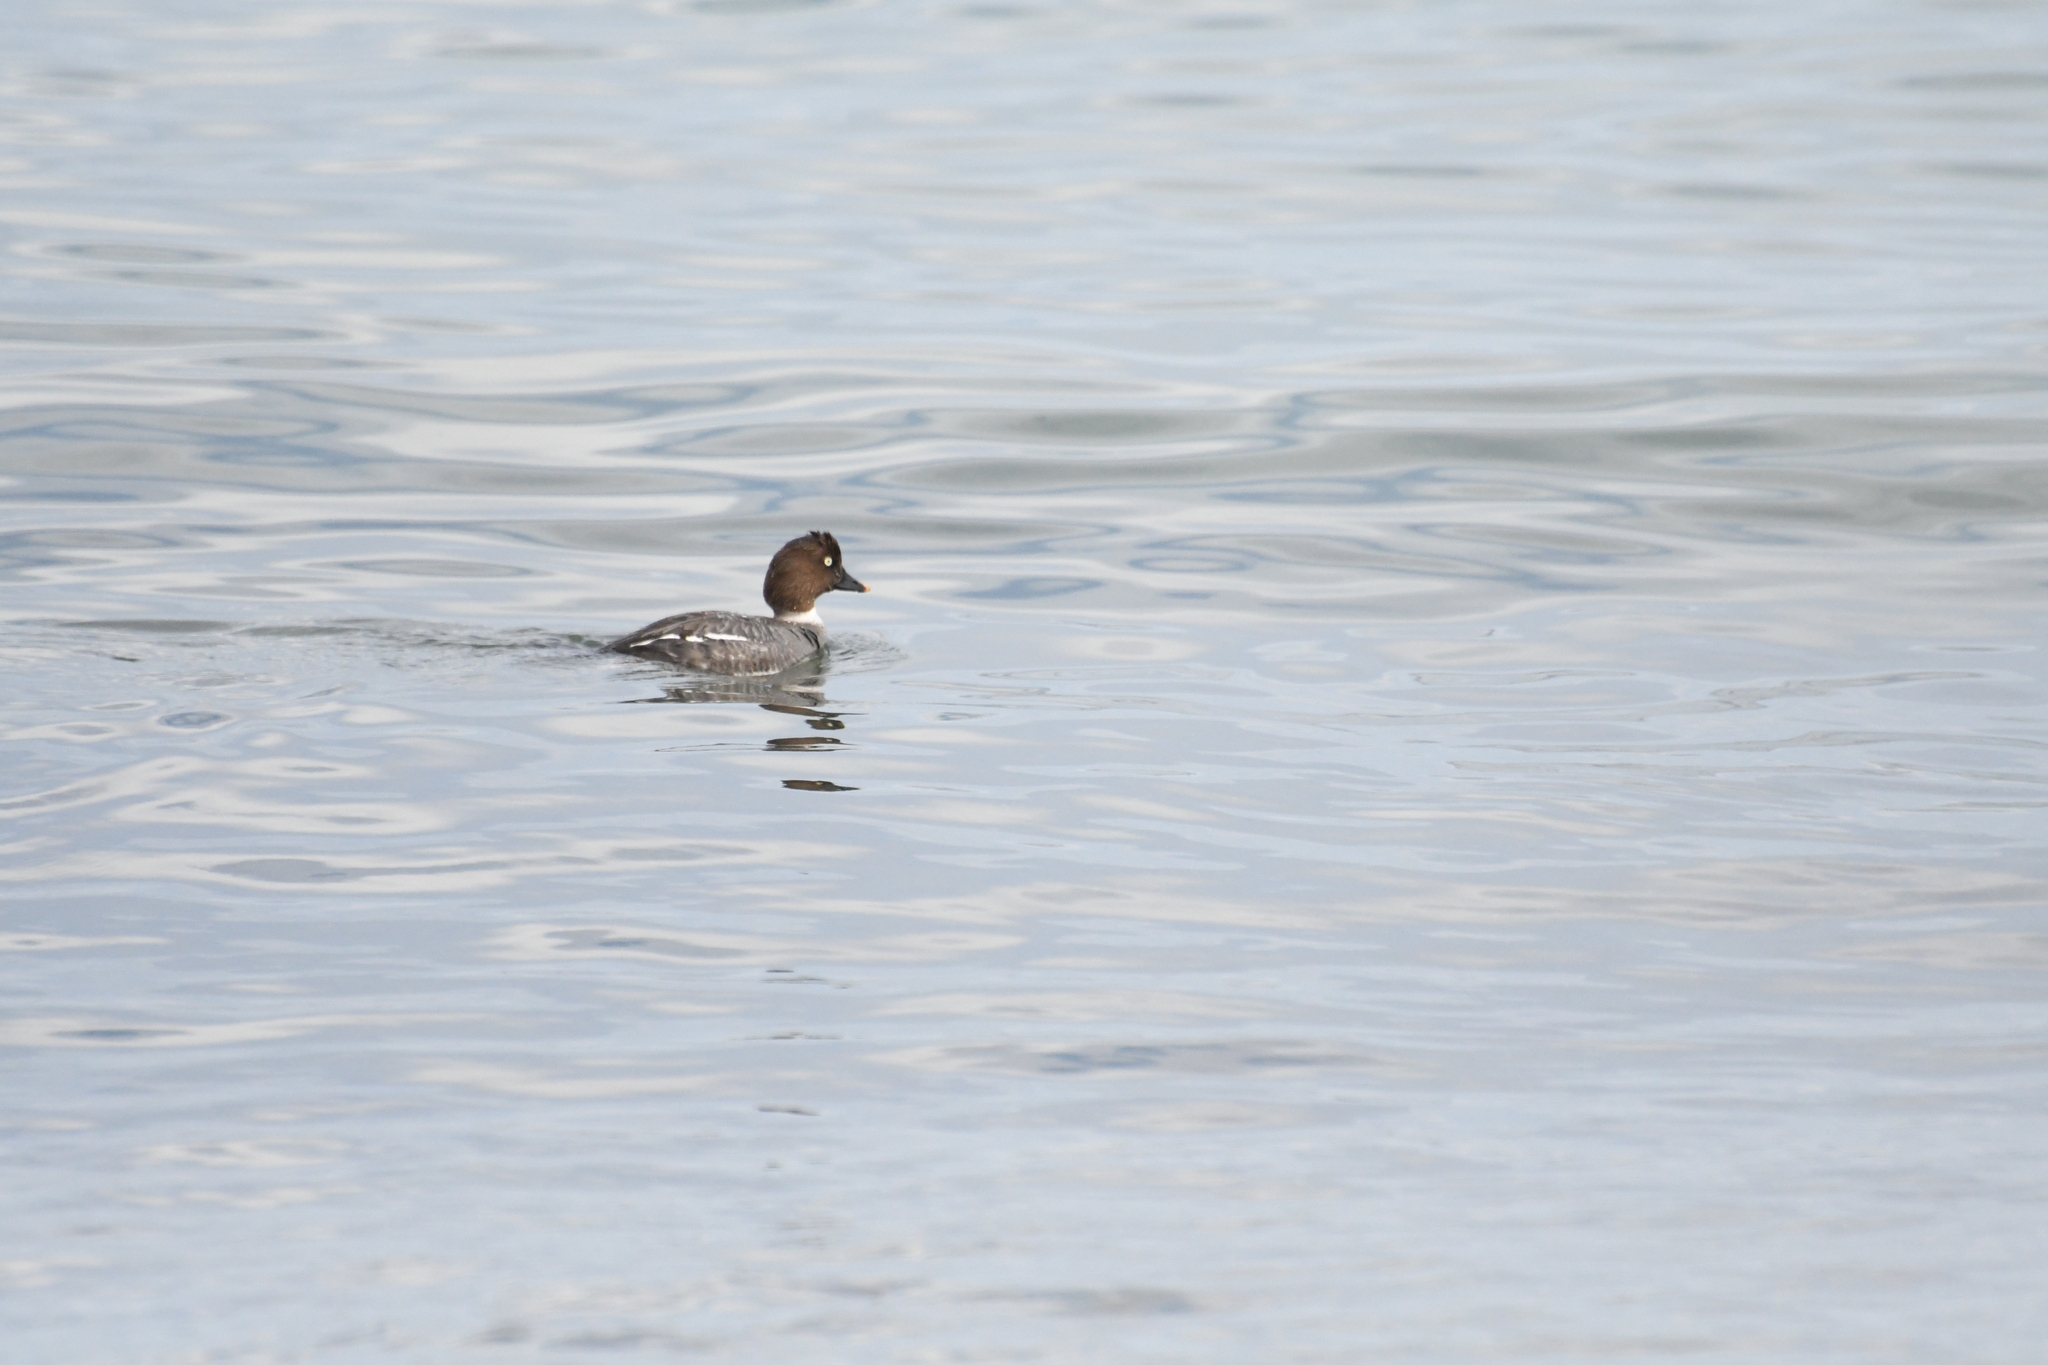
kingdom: Animalia
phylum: Chordata
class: Aves
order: Anseriformes
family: Anatidae
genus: Bucephala
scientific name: Bucephala clangula
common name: Common goldeneye
